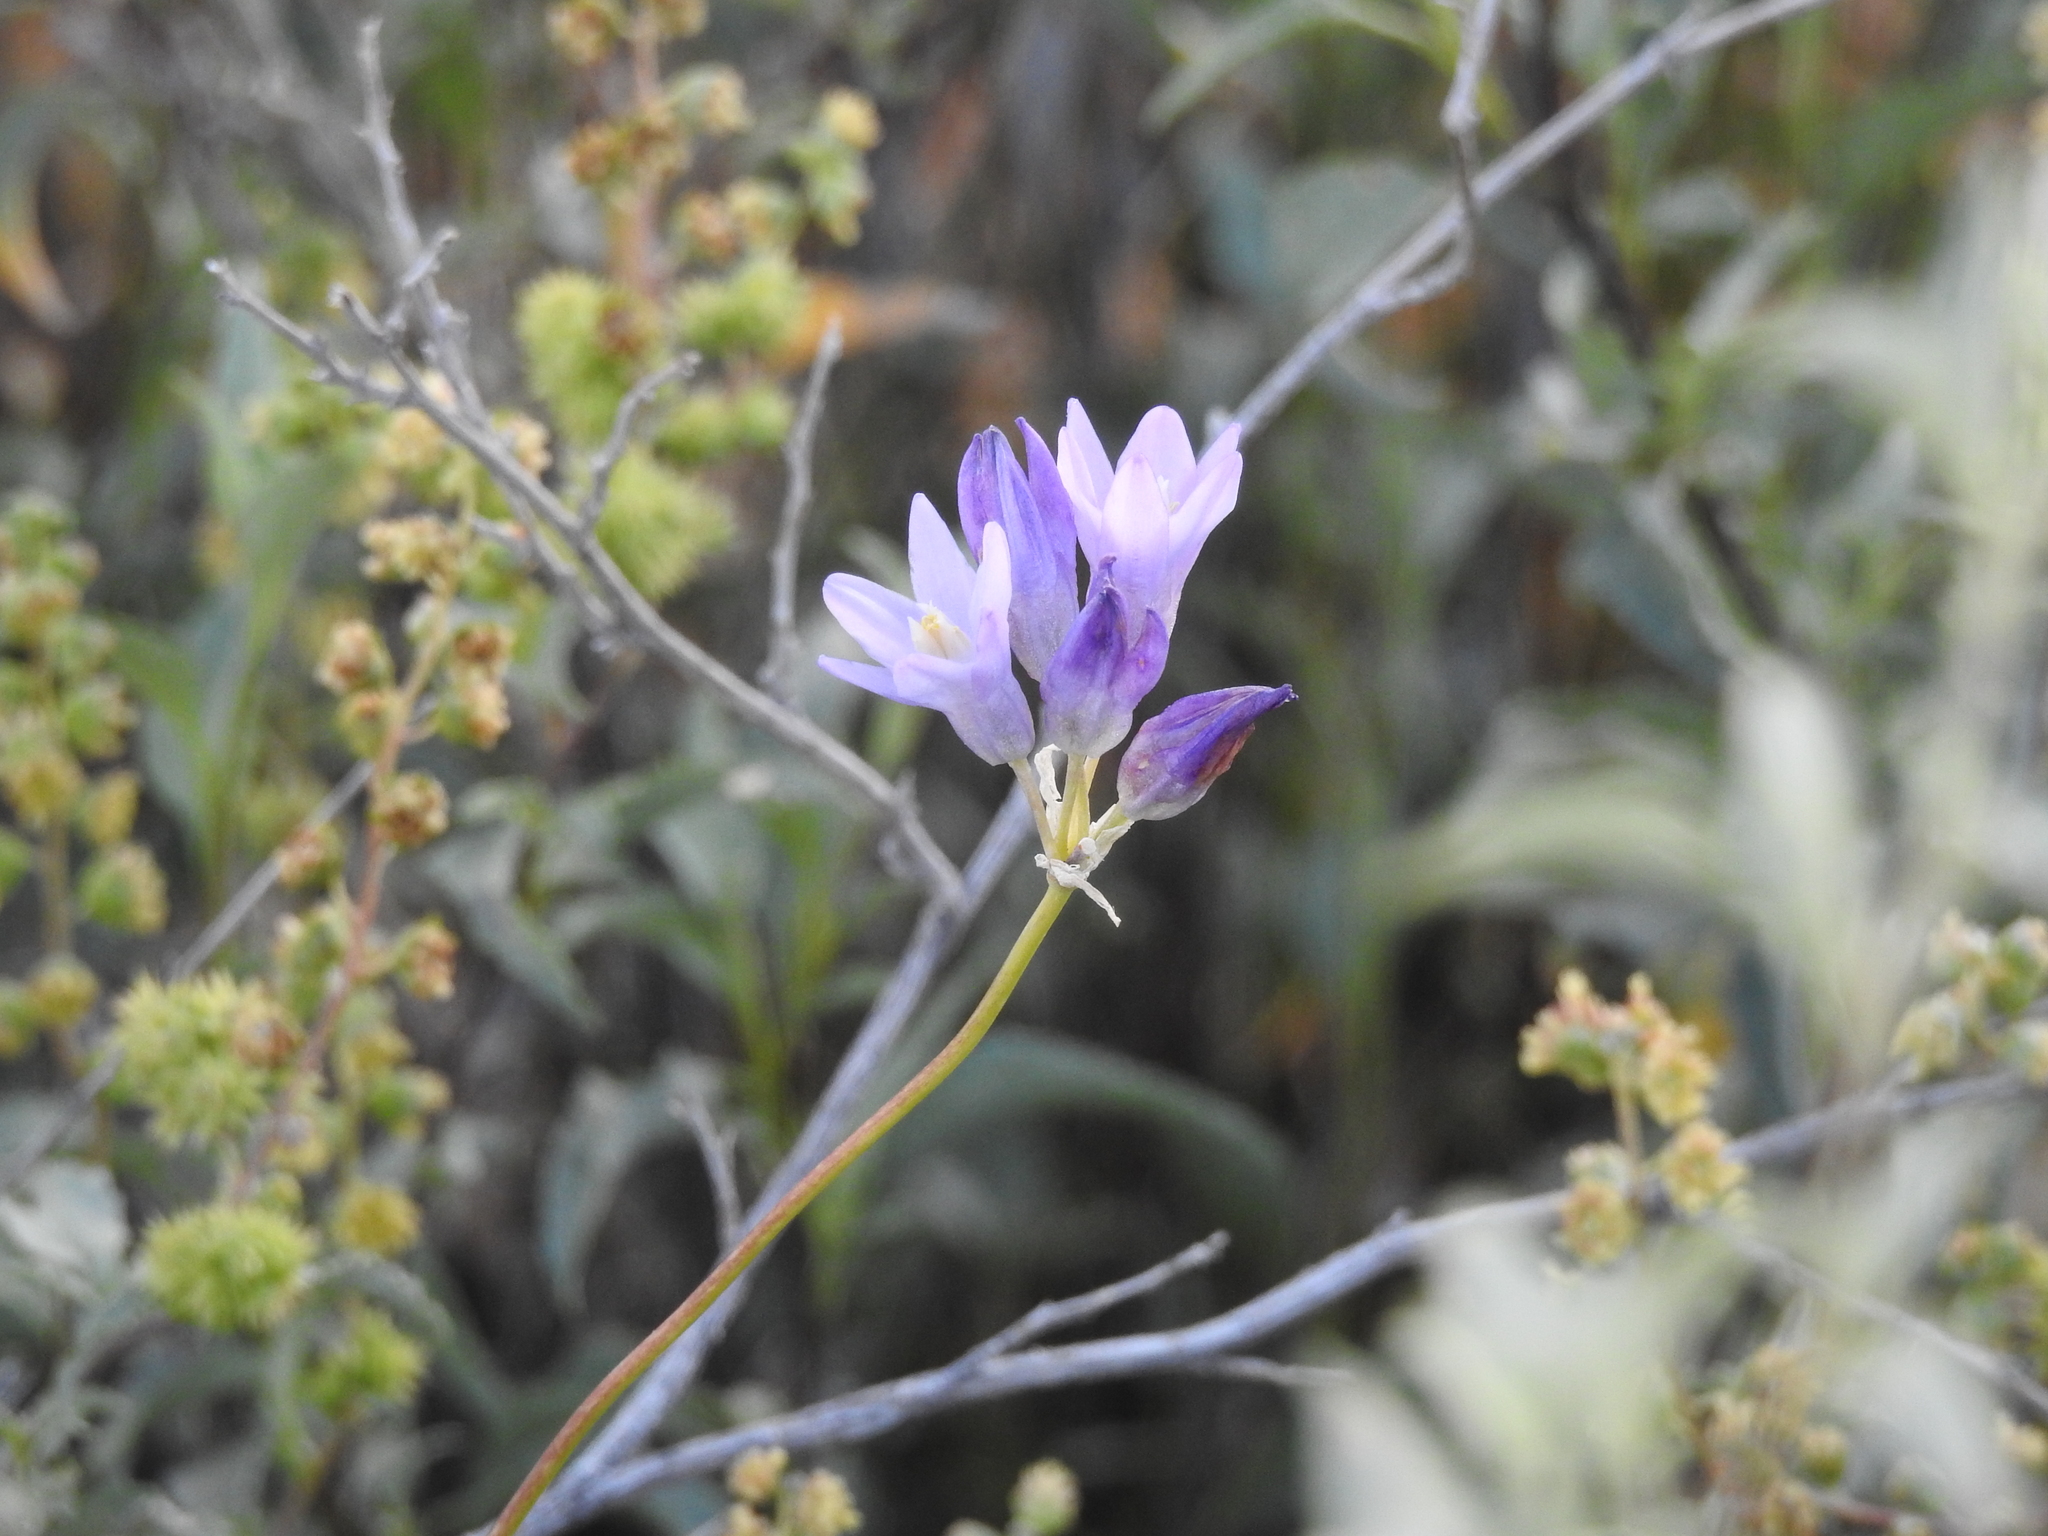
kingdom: Plantae
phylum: Tracheophyta
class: Liliopsida
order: Asparagales
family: Asparagaceae
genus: Dipterostemon
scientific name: Dipterostemon capitatus
